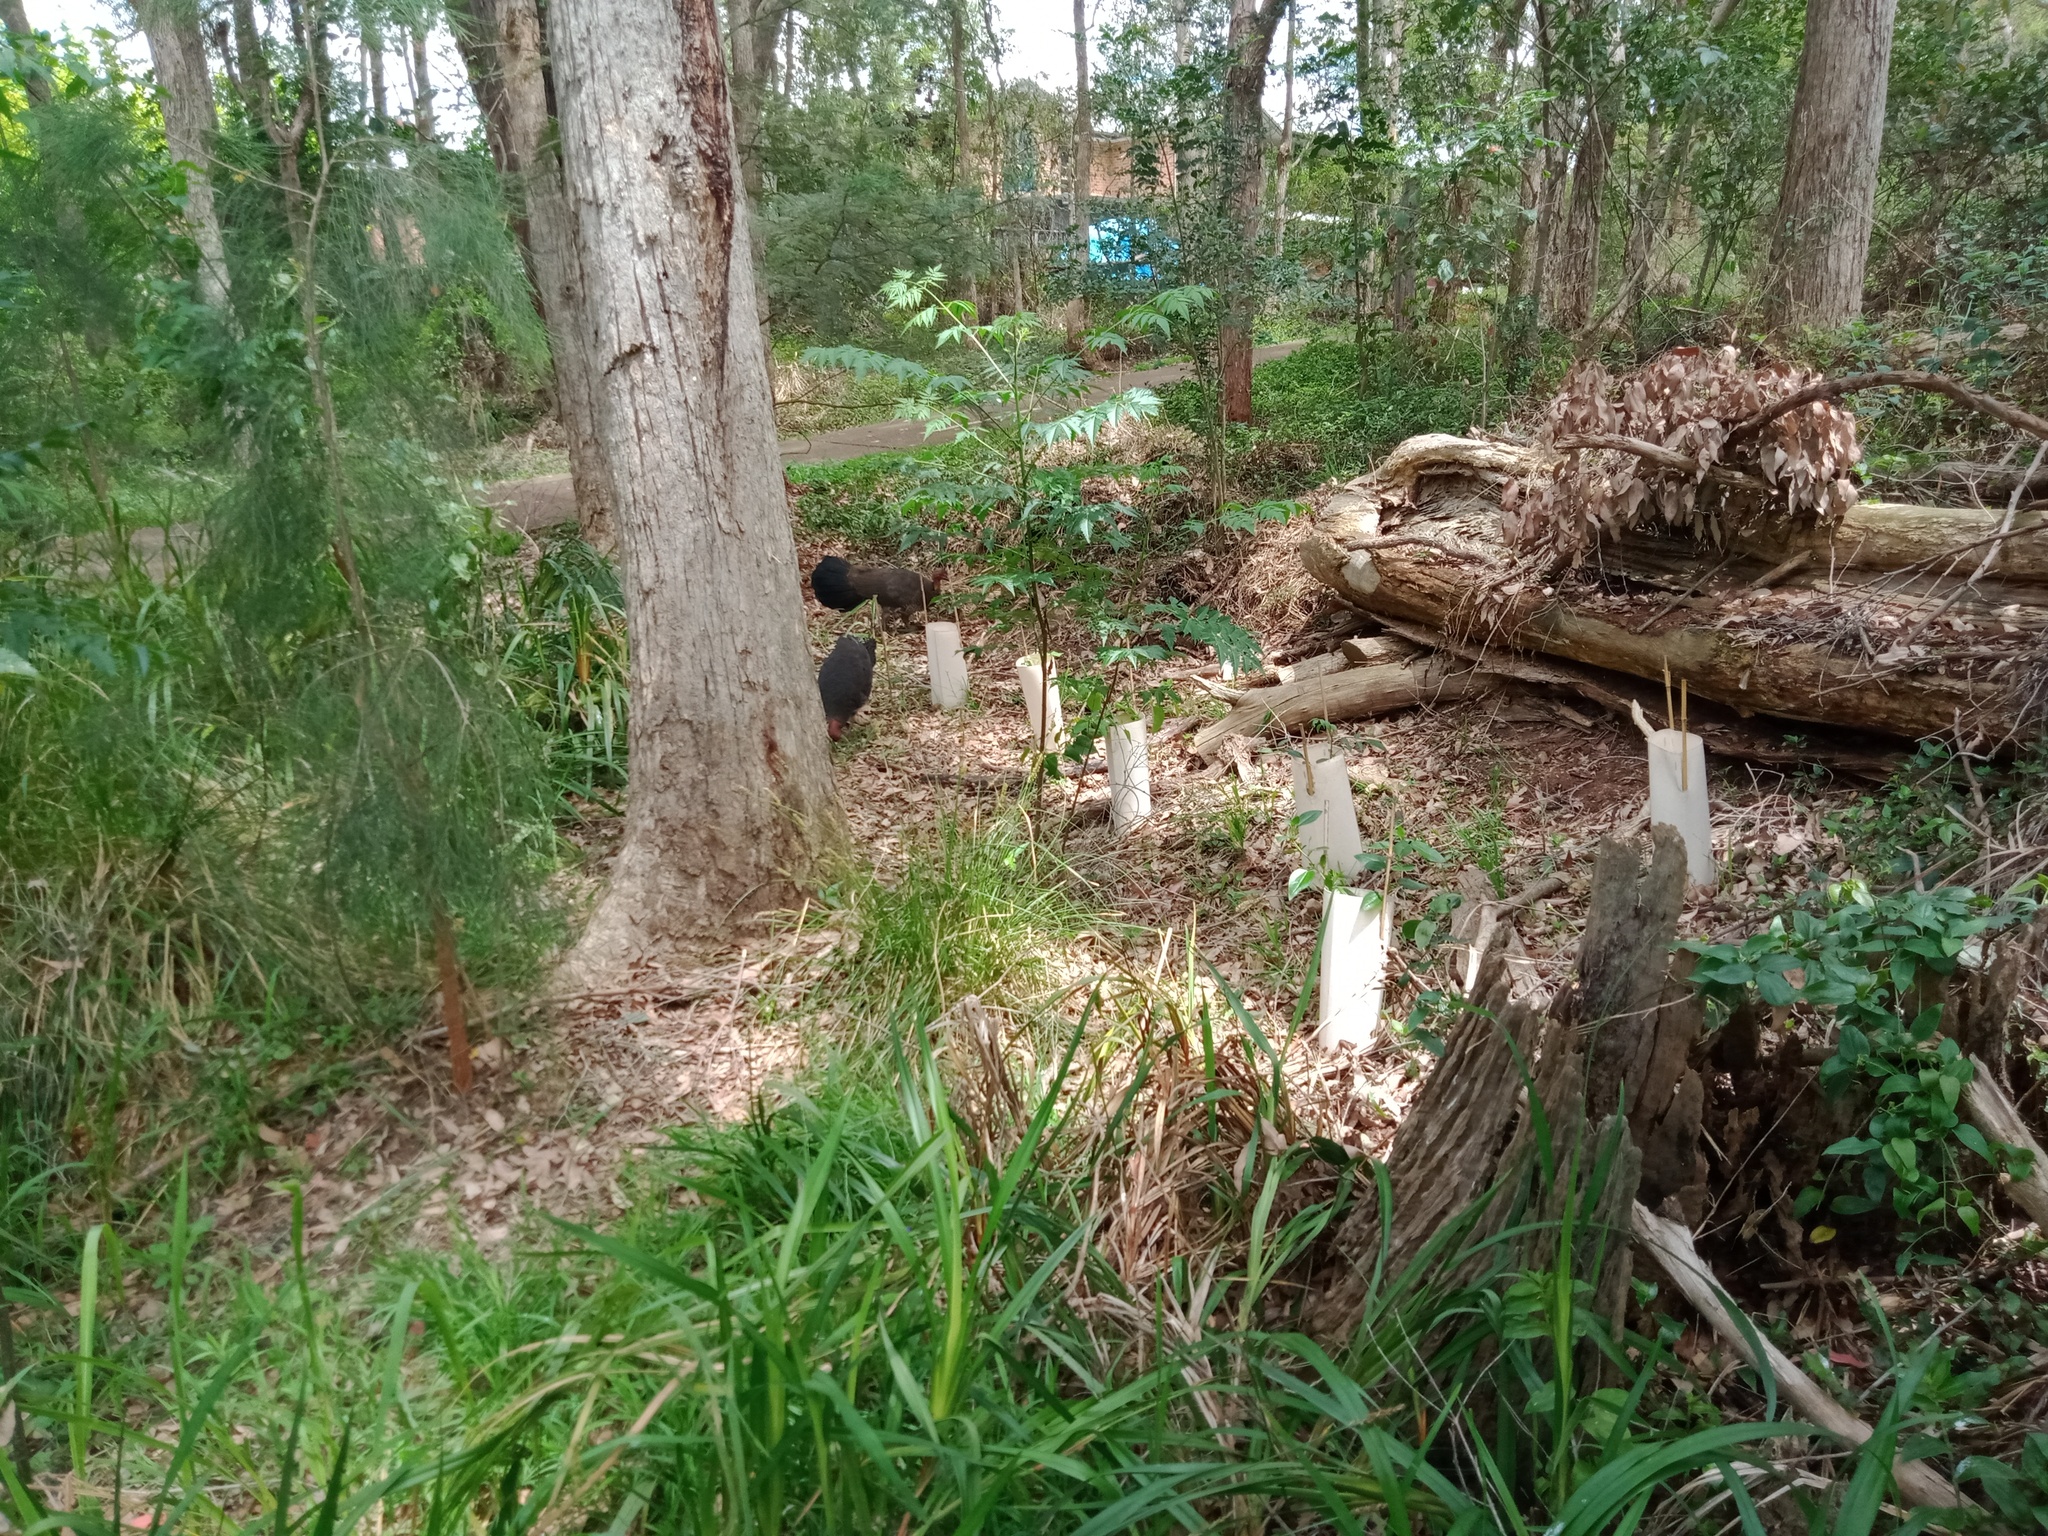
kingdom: Animalia
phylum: Chordata
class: Aves
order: Galliformes
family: Megapodiidae
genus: Alectura
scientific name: Alectura lathami
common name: Australian brushturkey
